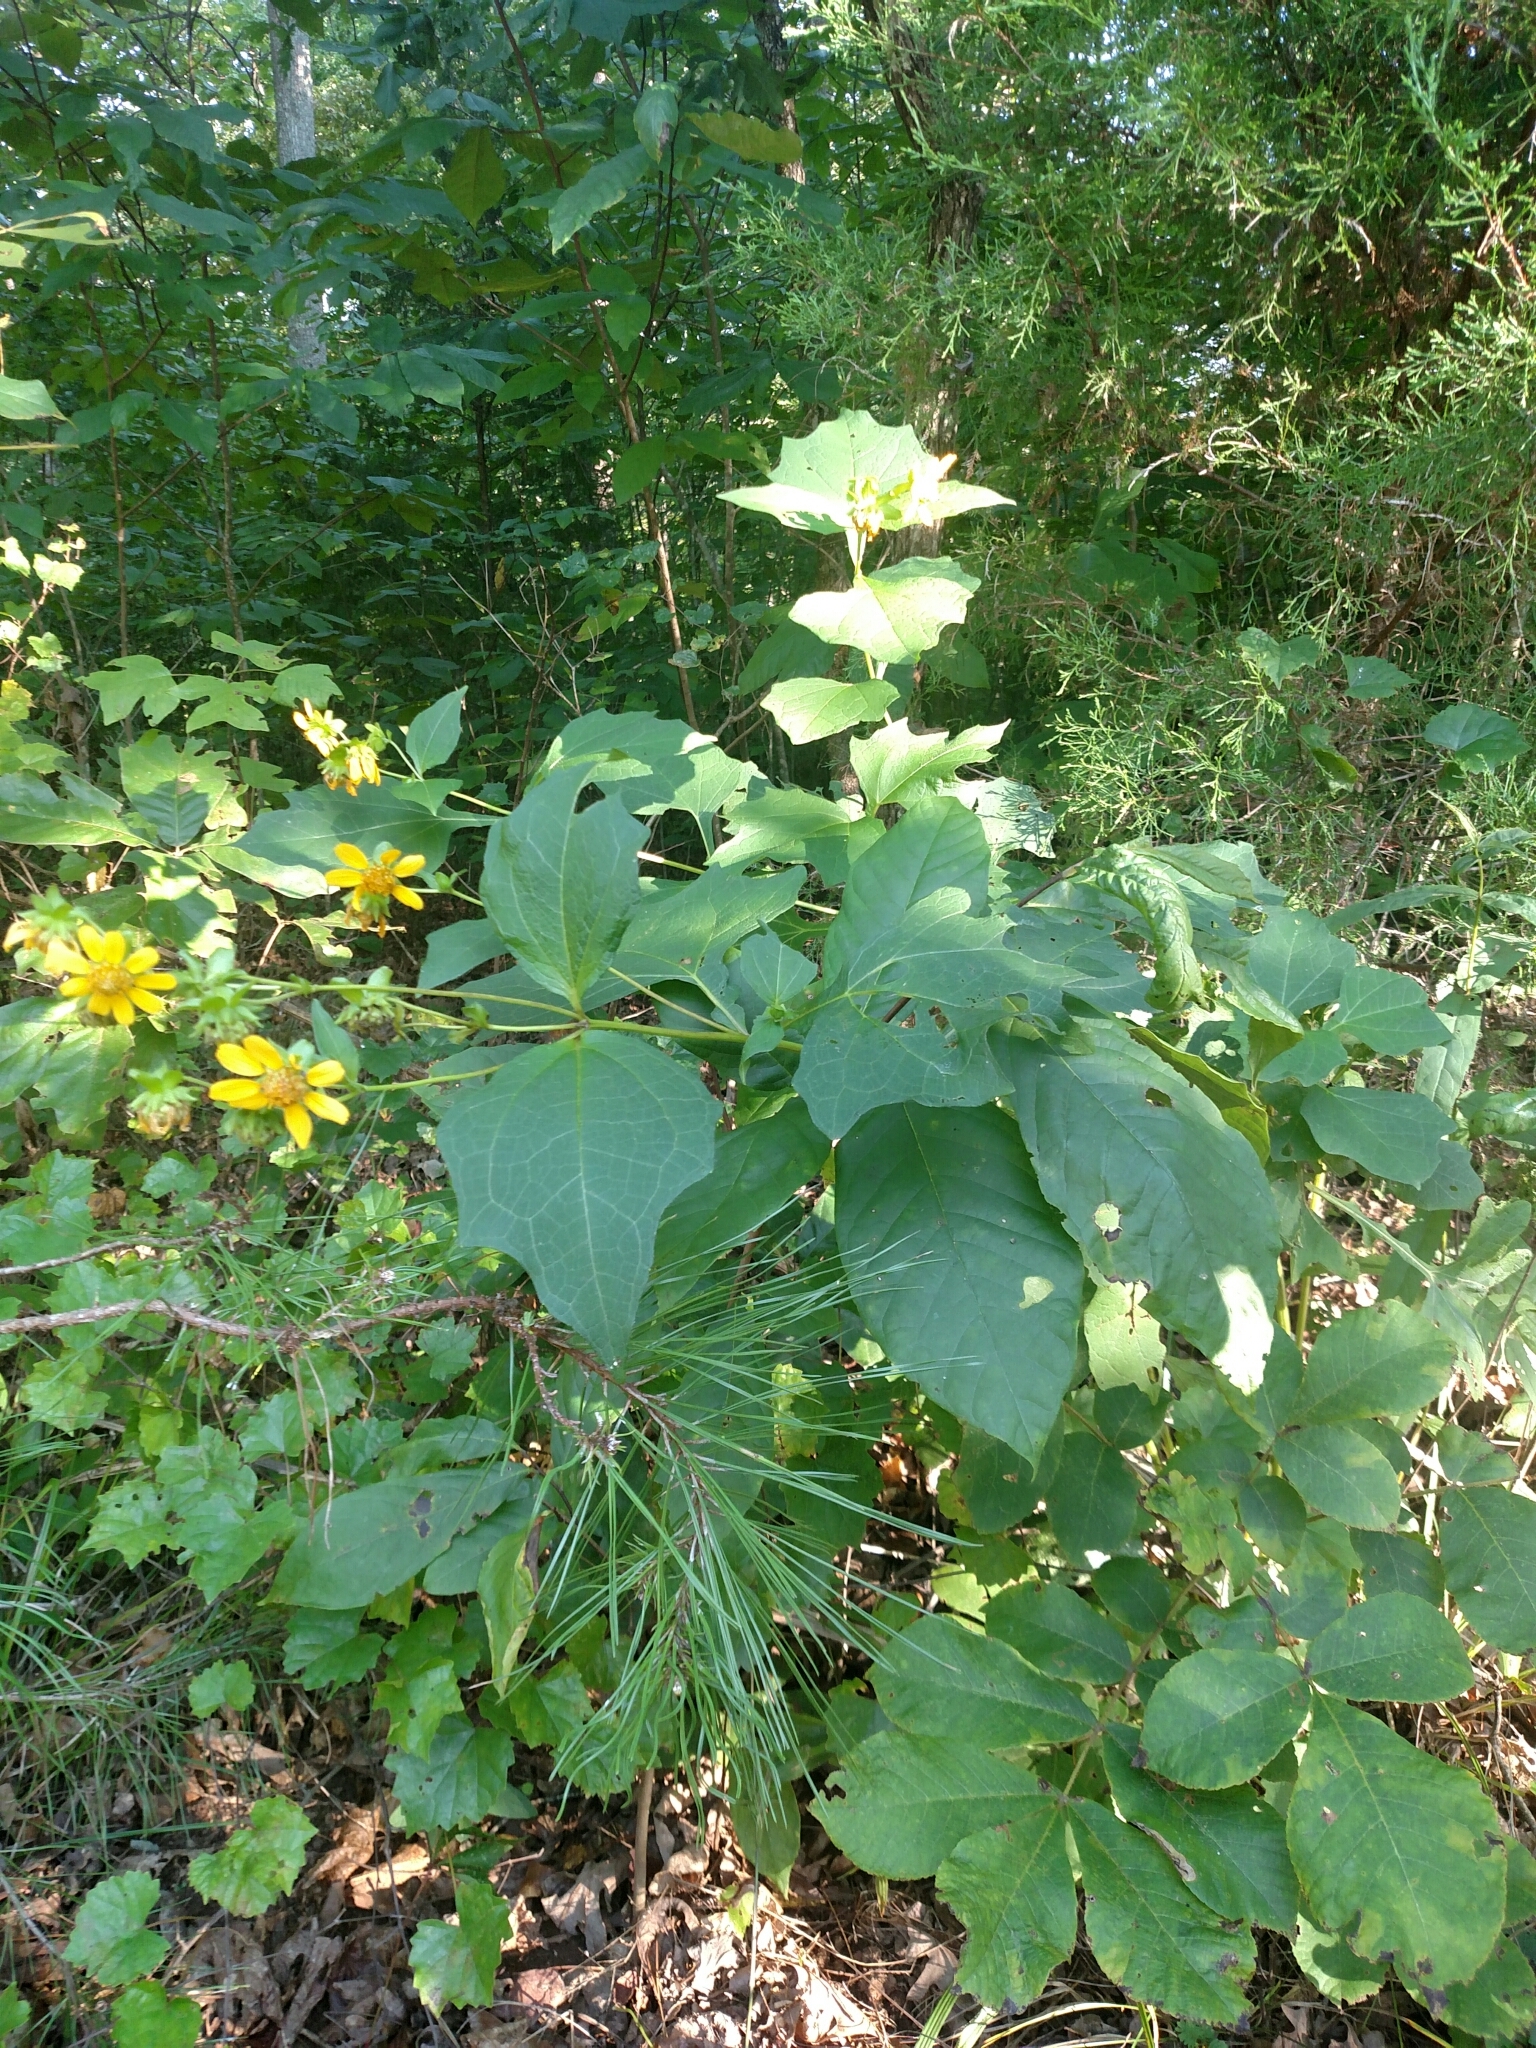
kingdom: Plantae
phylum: Tracheophyta
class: Magnoliopsida
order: Asterales
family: Asteraceae
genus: Smallanthus
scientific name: Smallanthus uvedalia
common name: Bear's-foot
